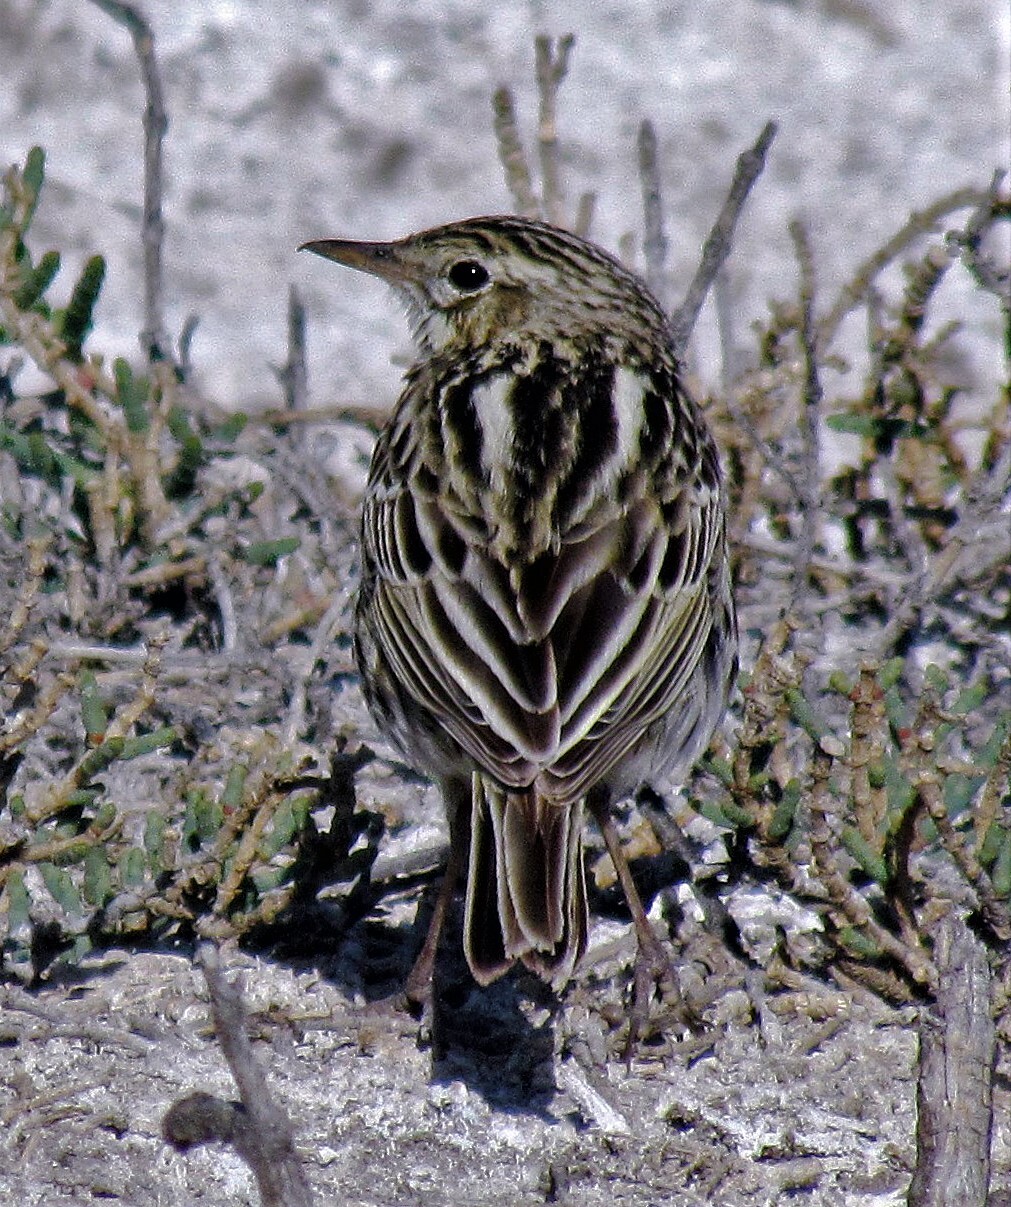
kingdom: Animalia
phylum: Chordata
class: Aves
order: Passeriformes
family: Motacillidae
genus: Anthus
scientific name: Anthus correndera
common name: Correndera pipit
